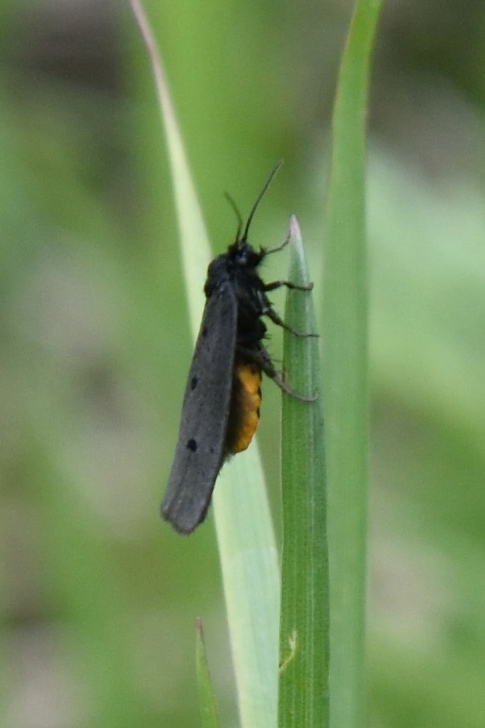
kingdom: Animalia
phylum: Arthropoda
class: Insecta
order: Lepidoptera
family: Ethmiidae
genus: Ethmia
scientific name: Ethmia pyrausta
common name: Mountain ermel
